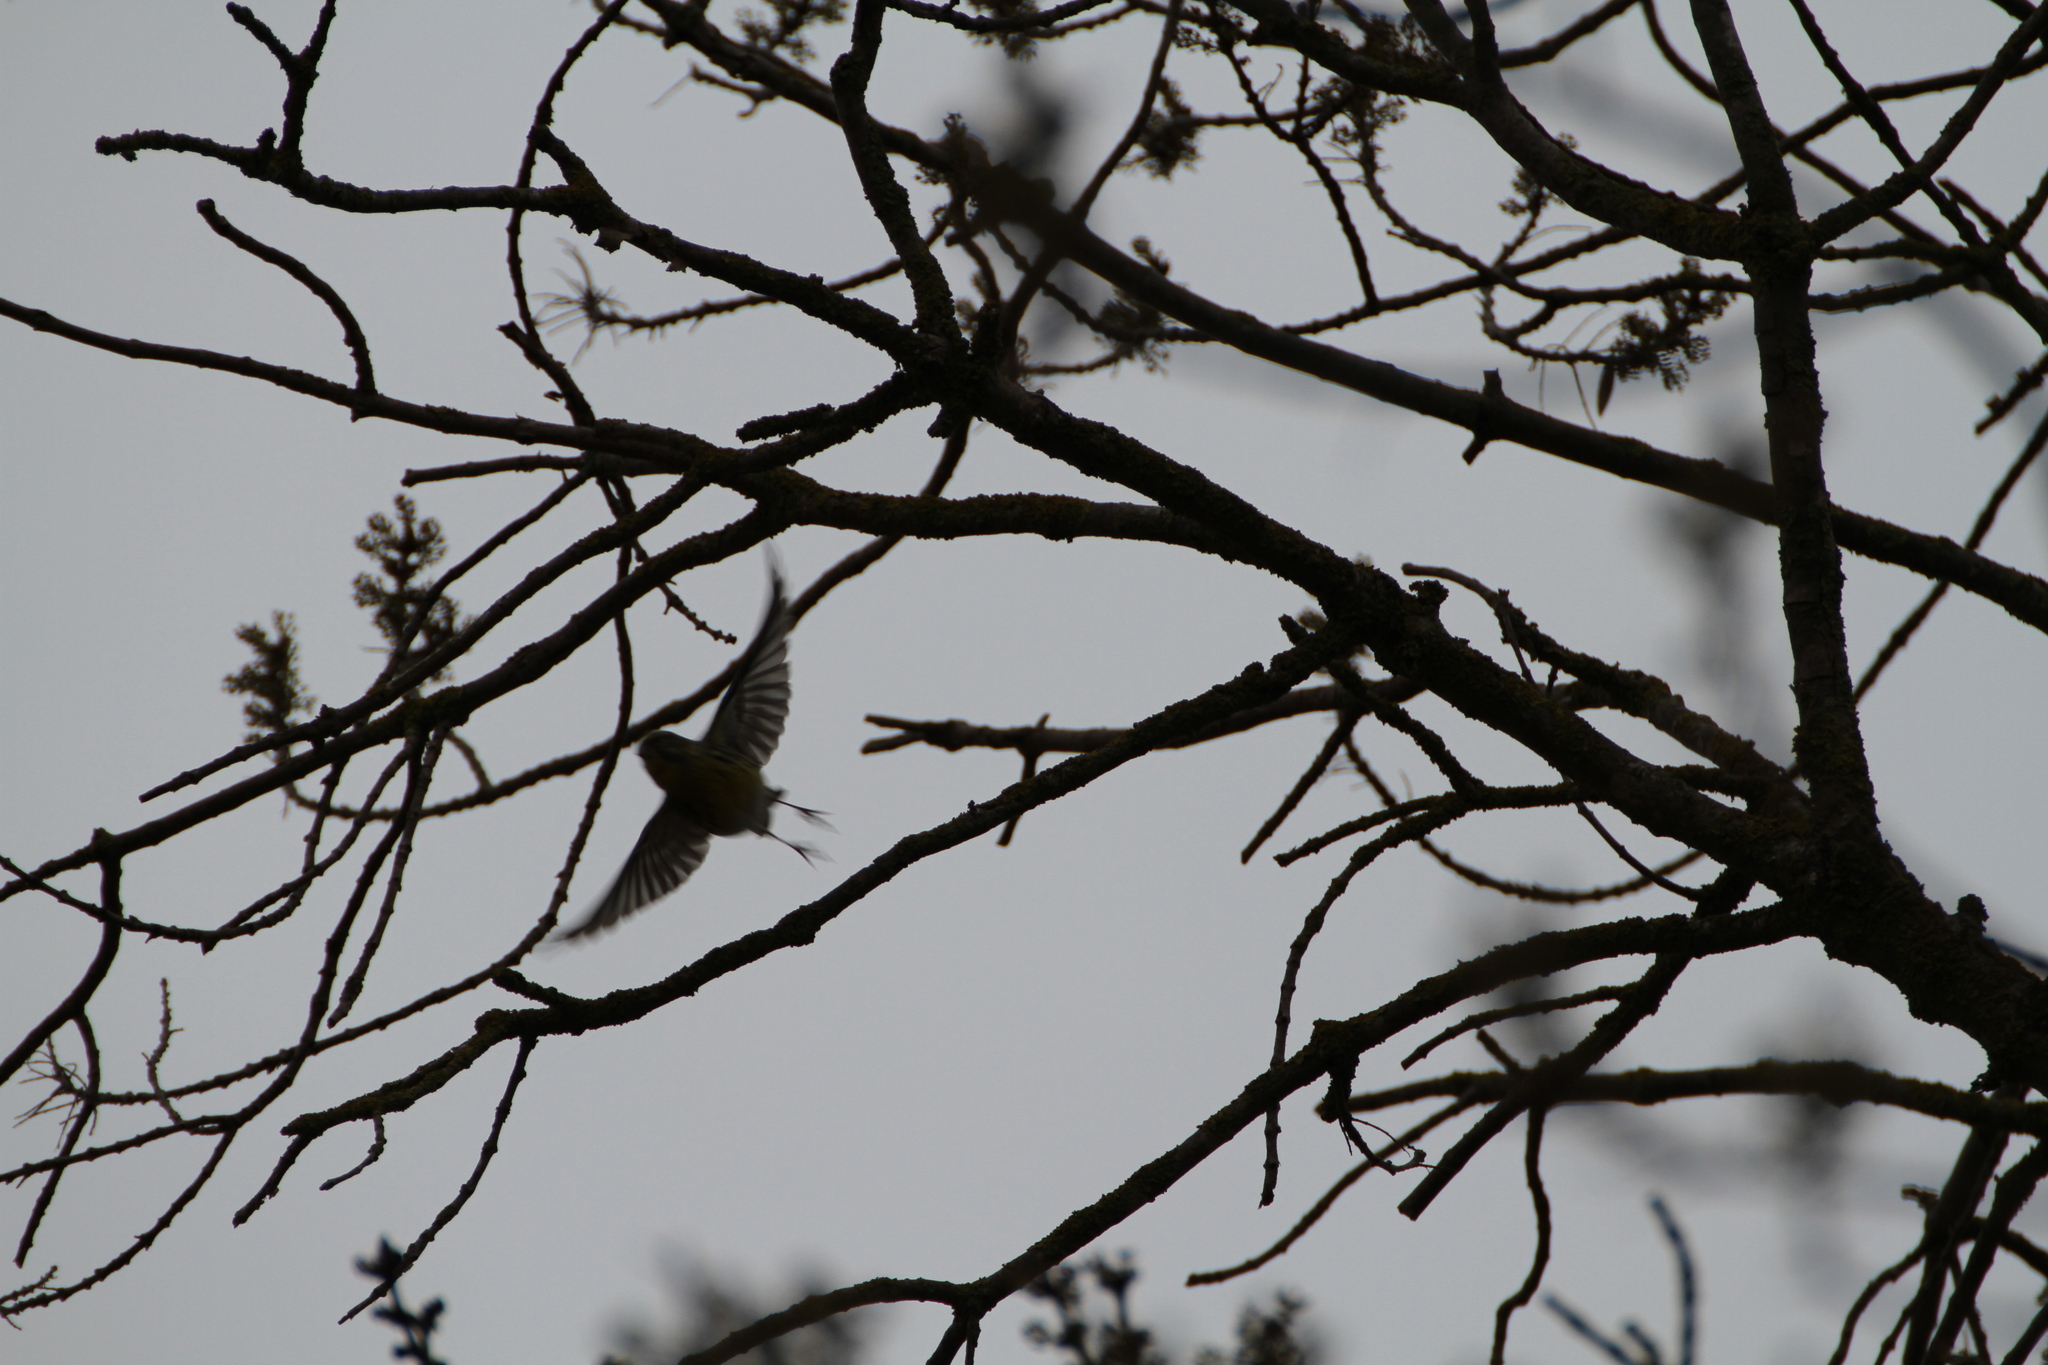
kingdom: Animalia
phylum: Chordata
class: Aves
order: Passeriformes
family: Fringillidae
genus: Serinus
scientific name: Serinus serinus
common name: European serin
